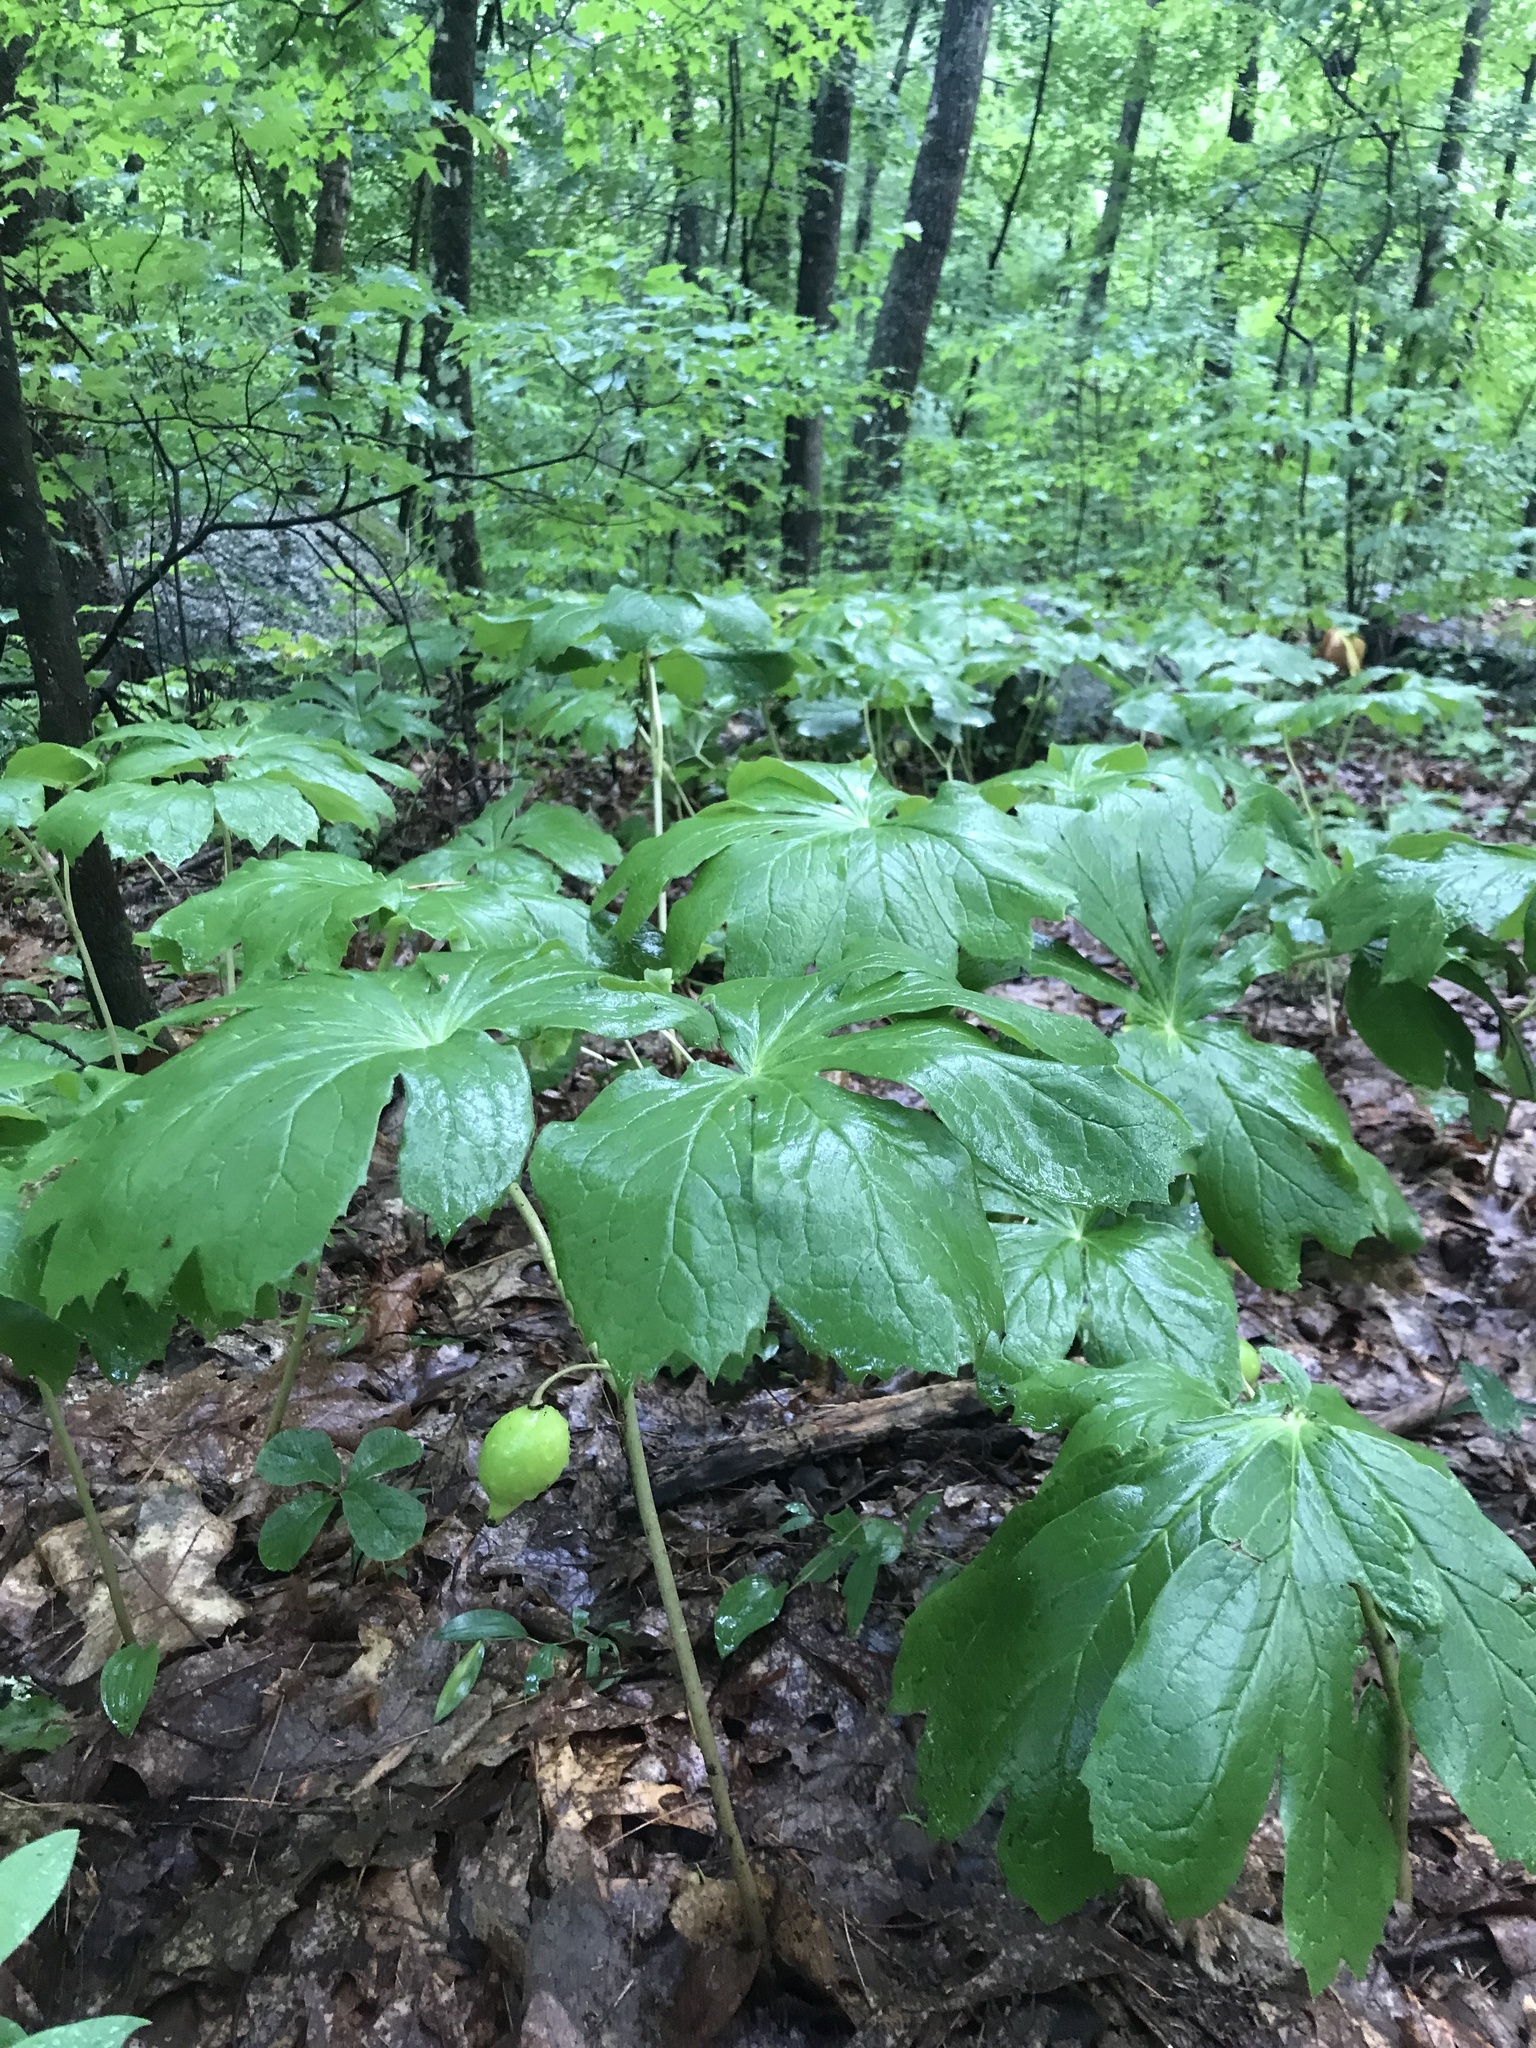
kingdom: Plantae
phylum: Tracheophyta
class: Magnoliopsida
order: Ranunculales
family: Berberidaceae
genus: Podophyllum
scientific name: Podophyllum peltatum
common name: Wild mandrake
